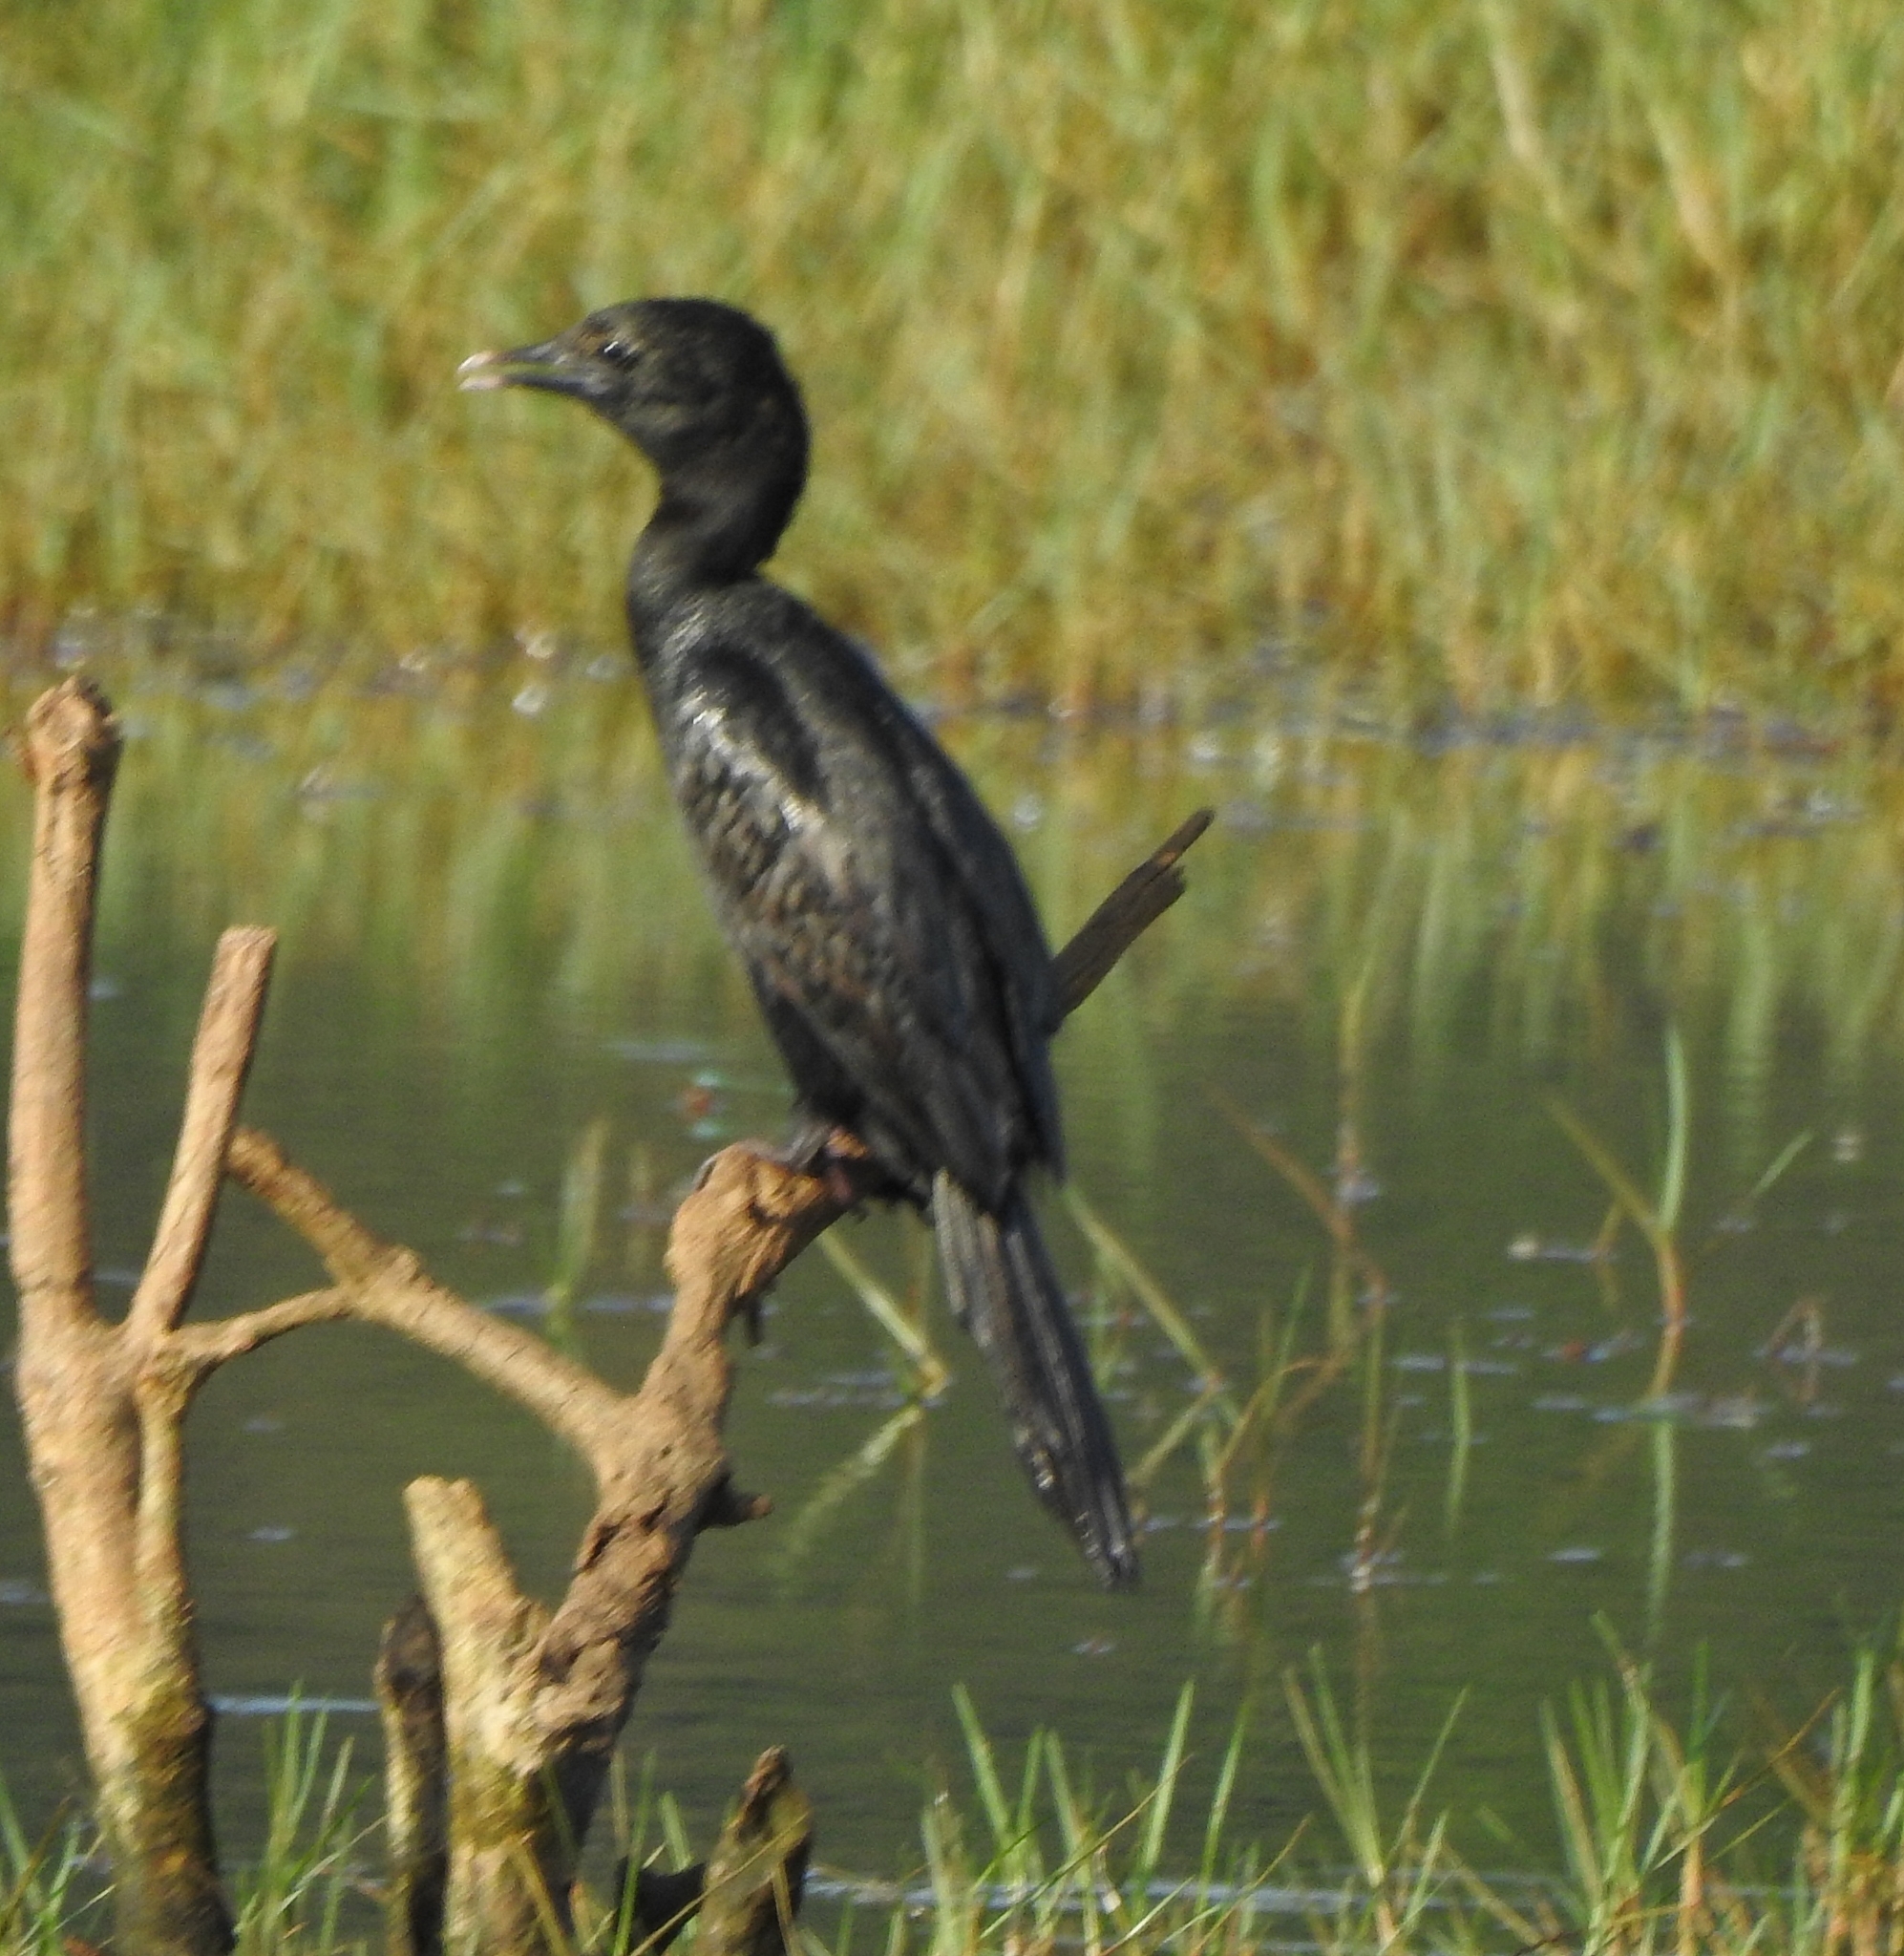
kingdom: Animalia
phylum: Chordata
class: Aves
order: Suliformes
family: Phalacrocoracidae
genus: Microcarbo
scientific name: Microcarbo niger
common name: Little cormorant
